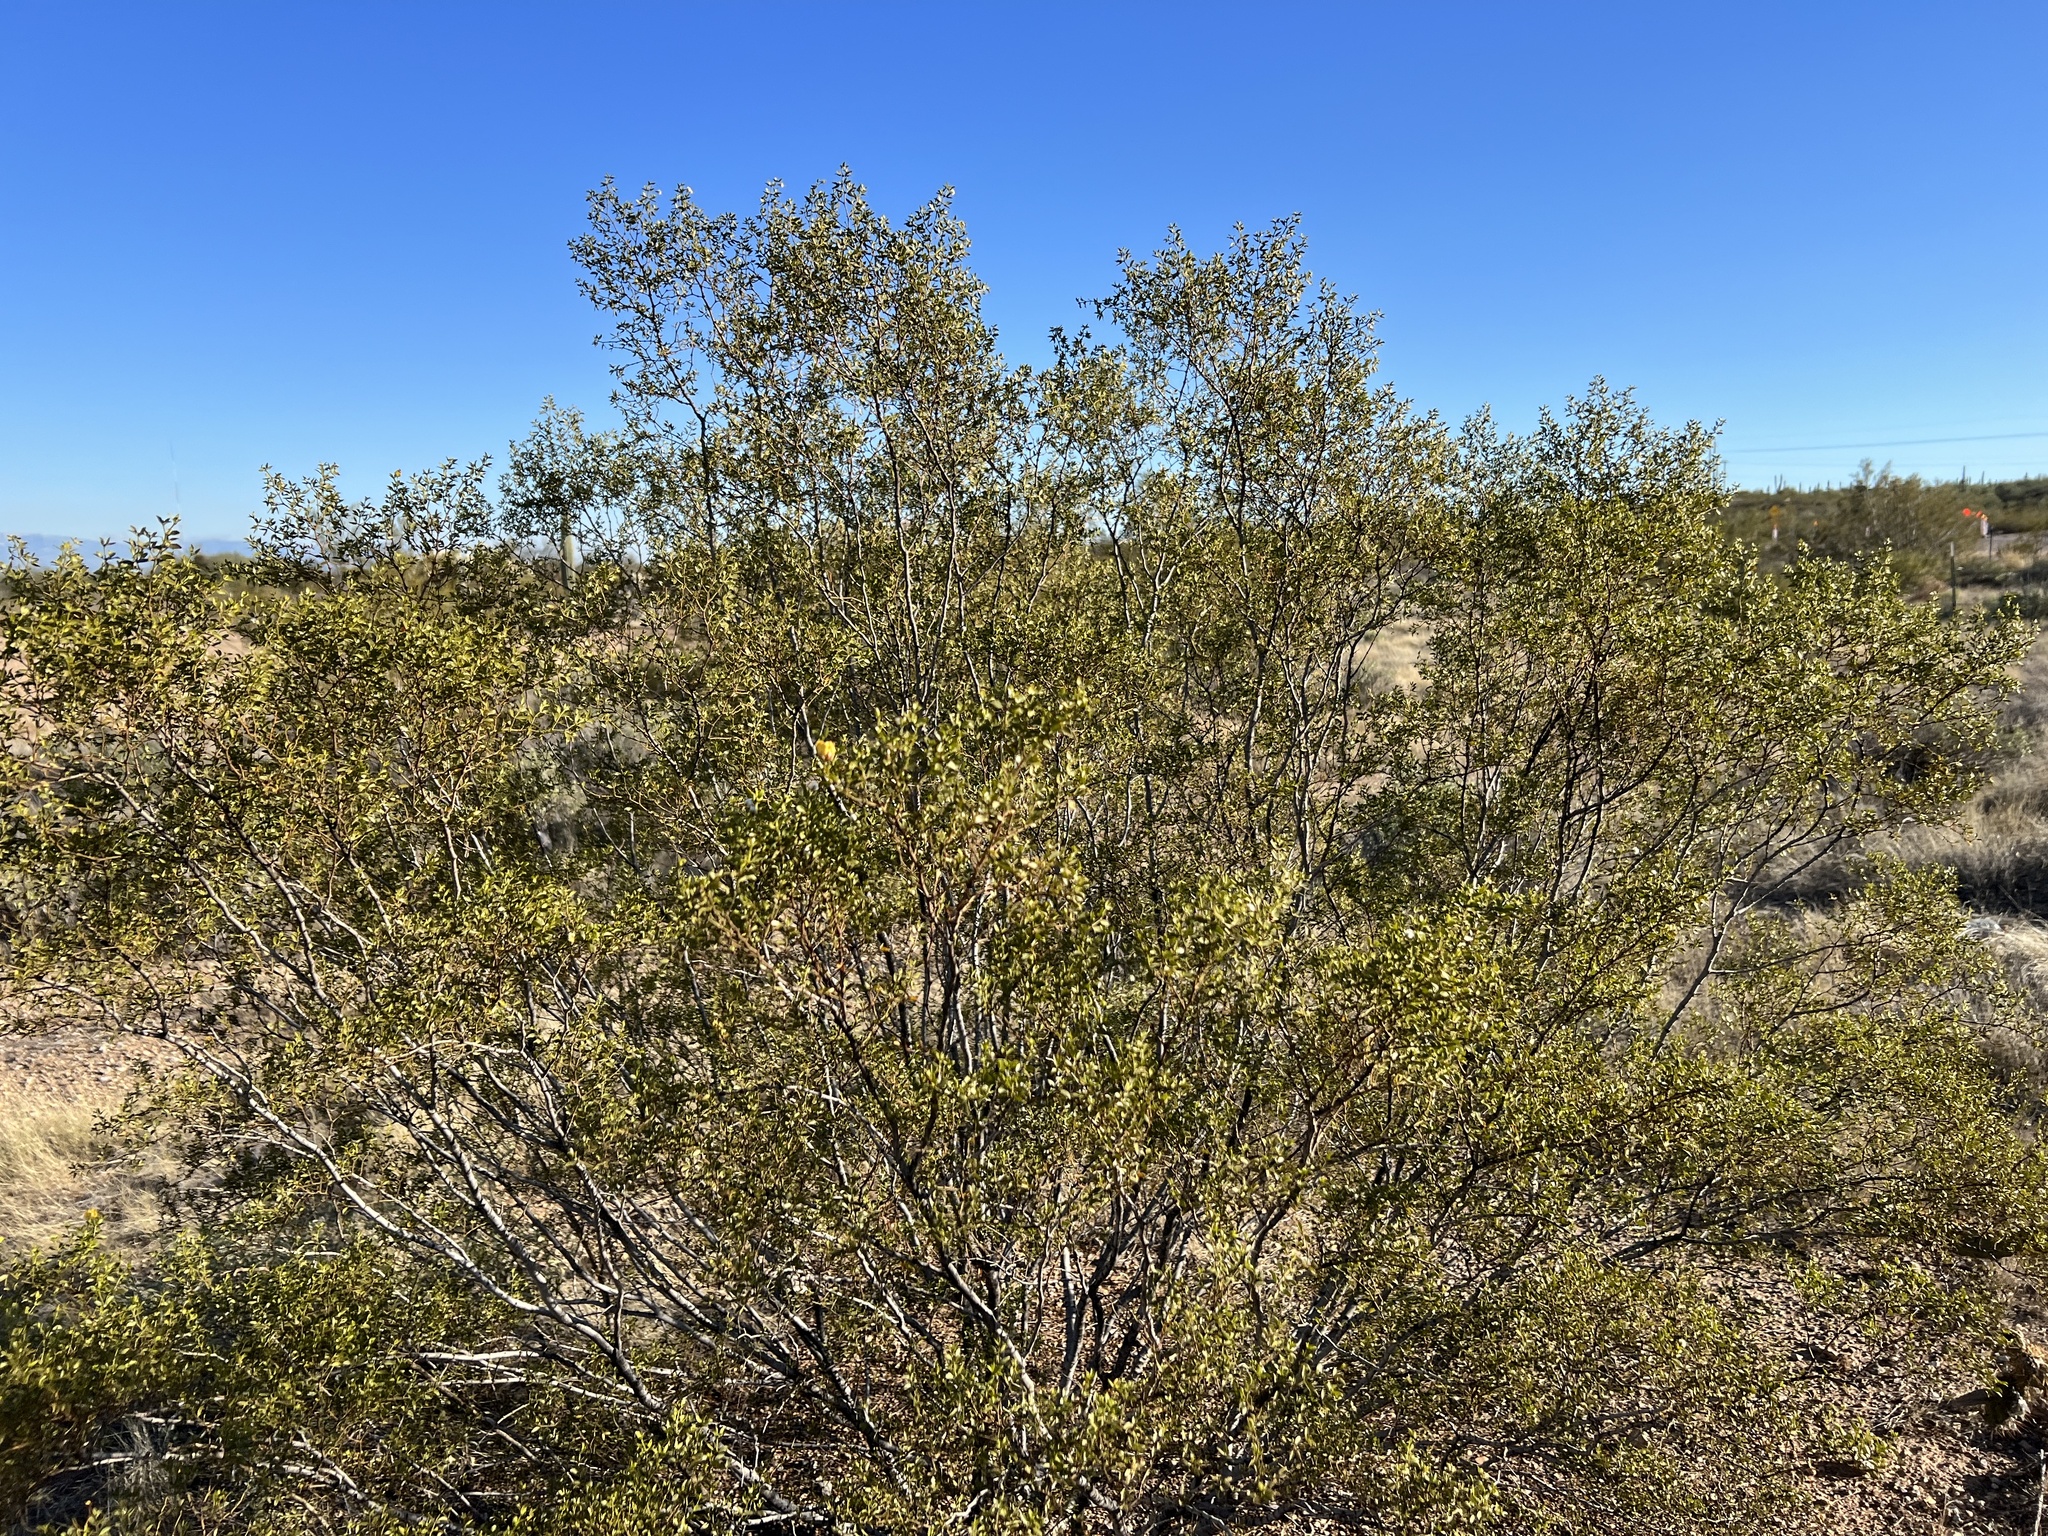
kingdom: Plantae
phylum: Tracheophyta
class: Magnoliopsida
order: Zygophyllales
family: Zygophyllaceae
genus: Larrea
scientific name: Larrea tridentata
